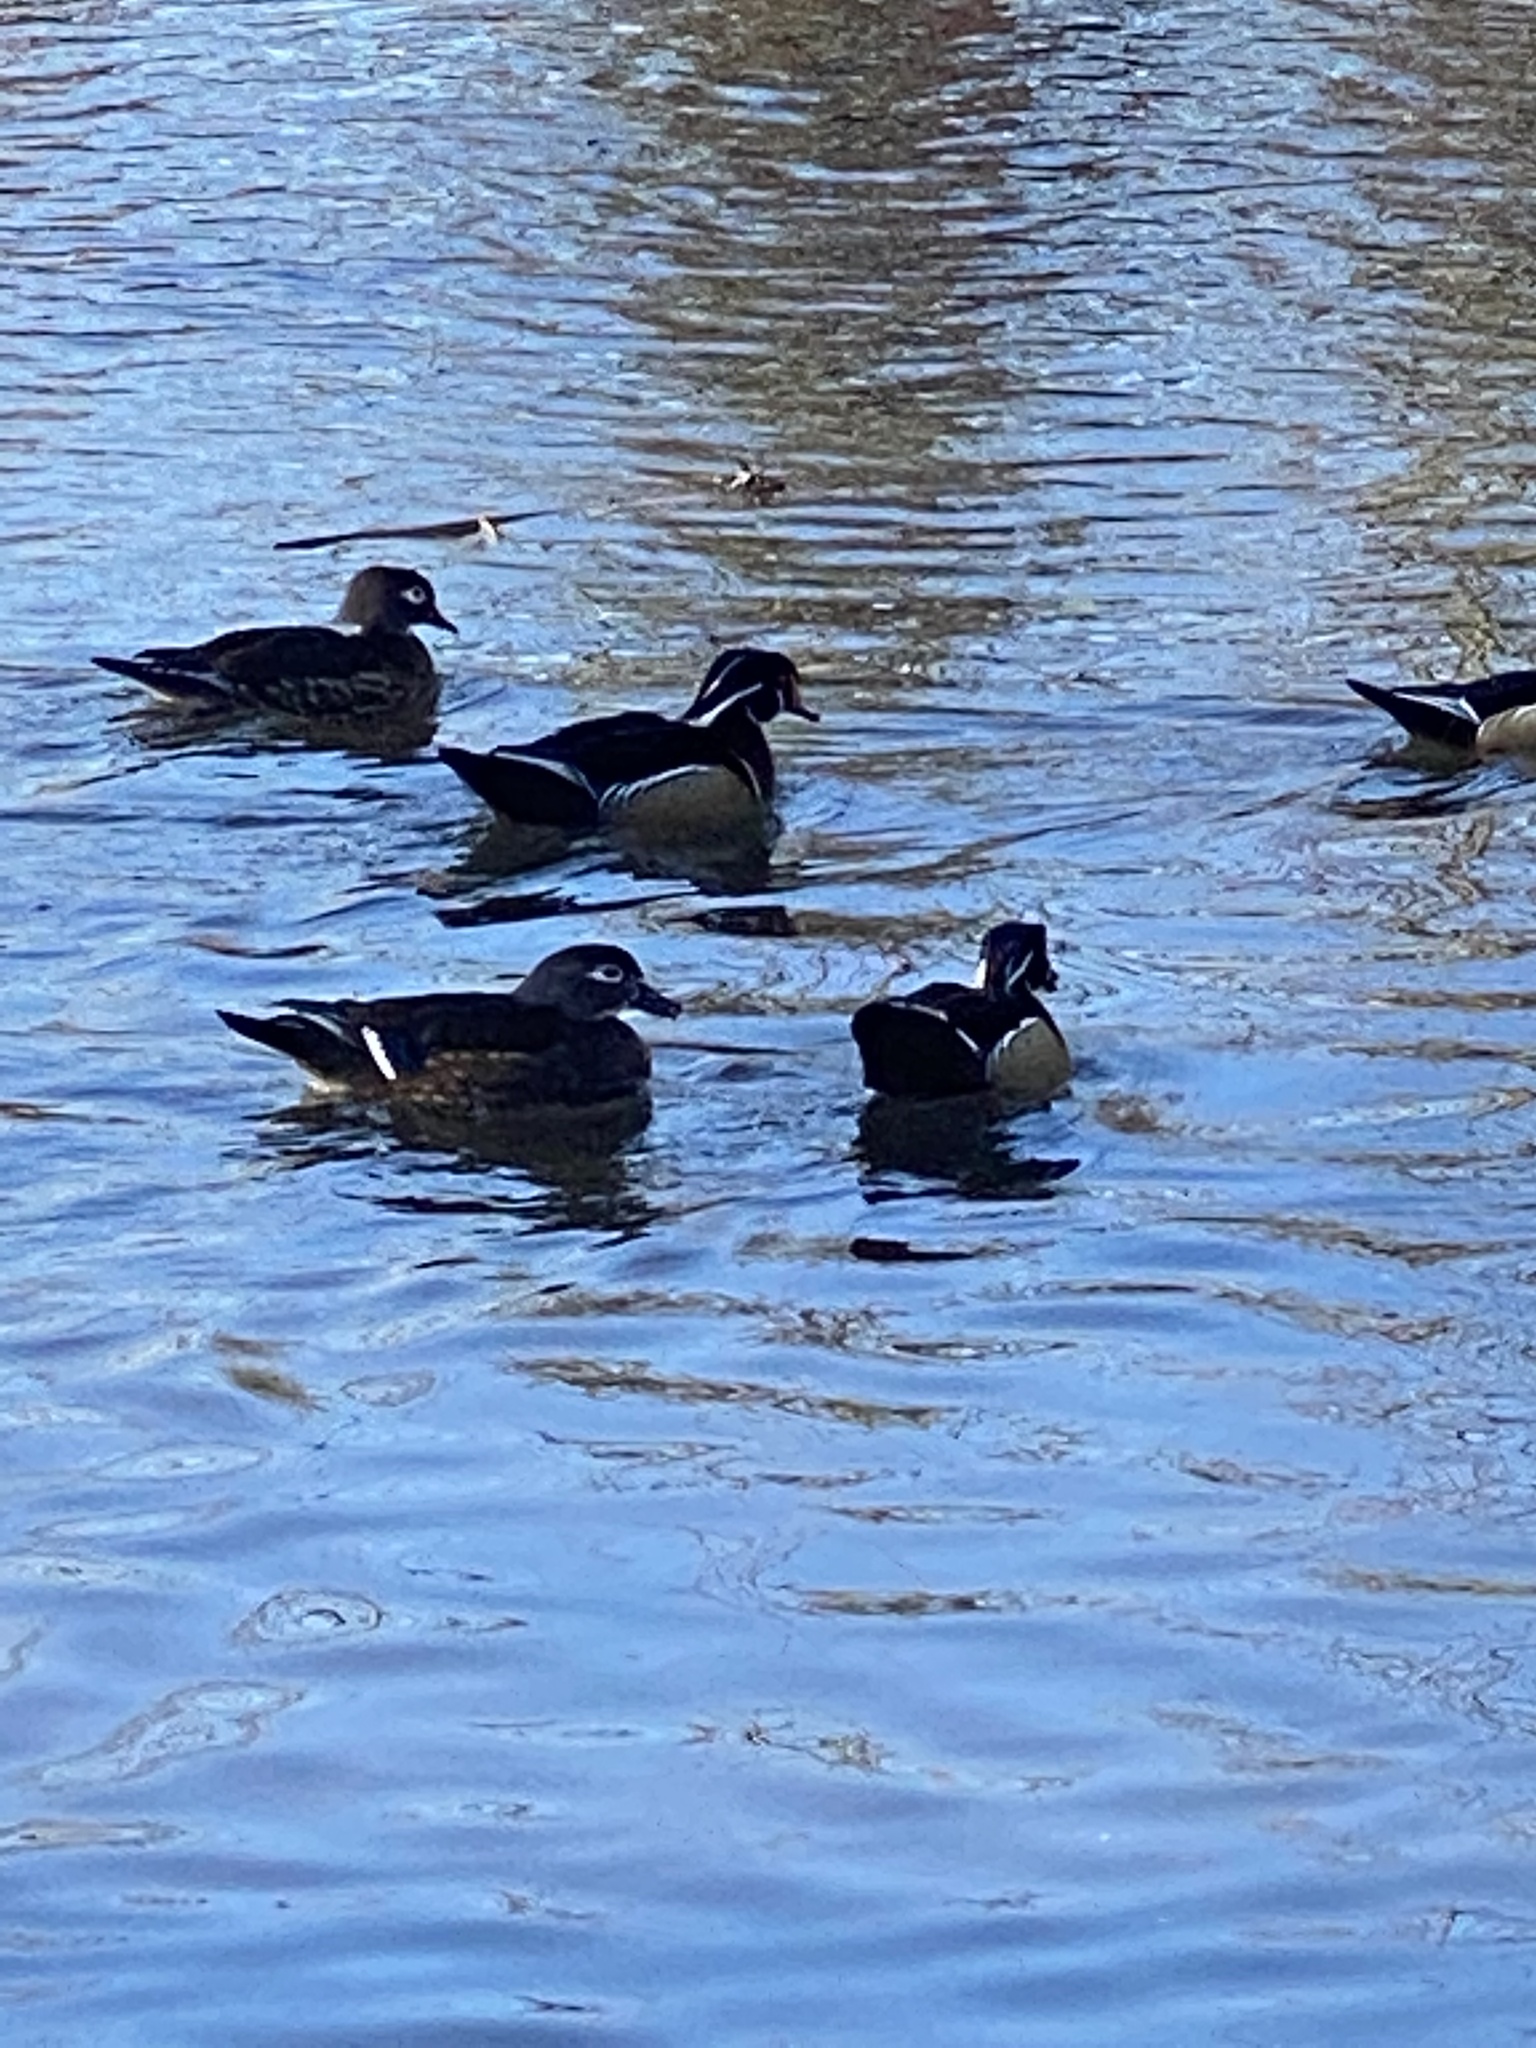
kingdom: Animalia
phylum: Chordata
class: Aves
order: Anseriformes
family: Anatidae
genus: Aix
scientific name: Aix sponsa
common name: Wood duck
